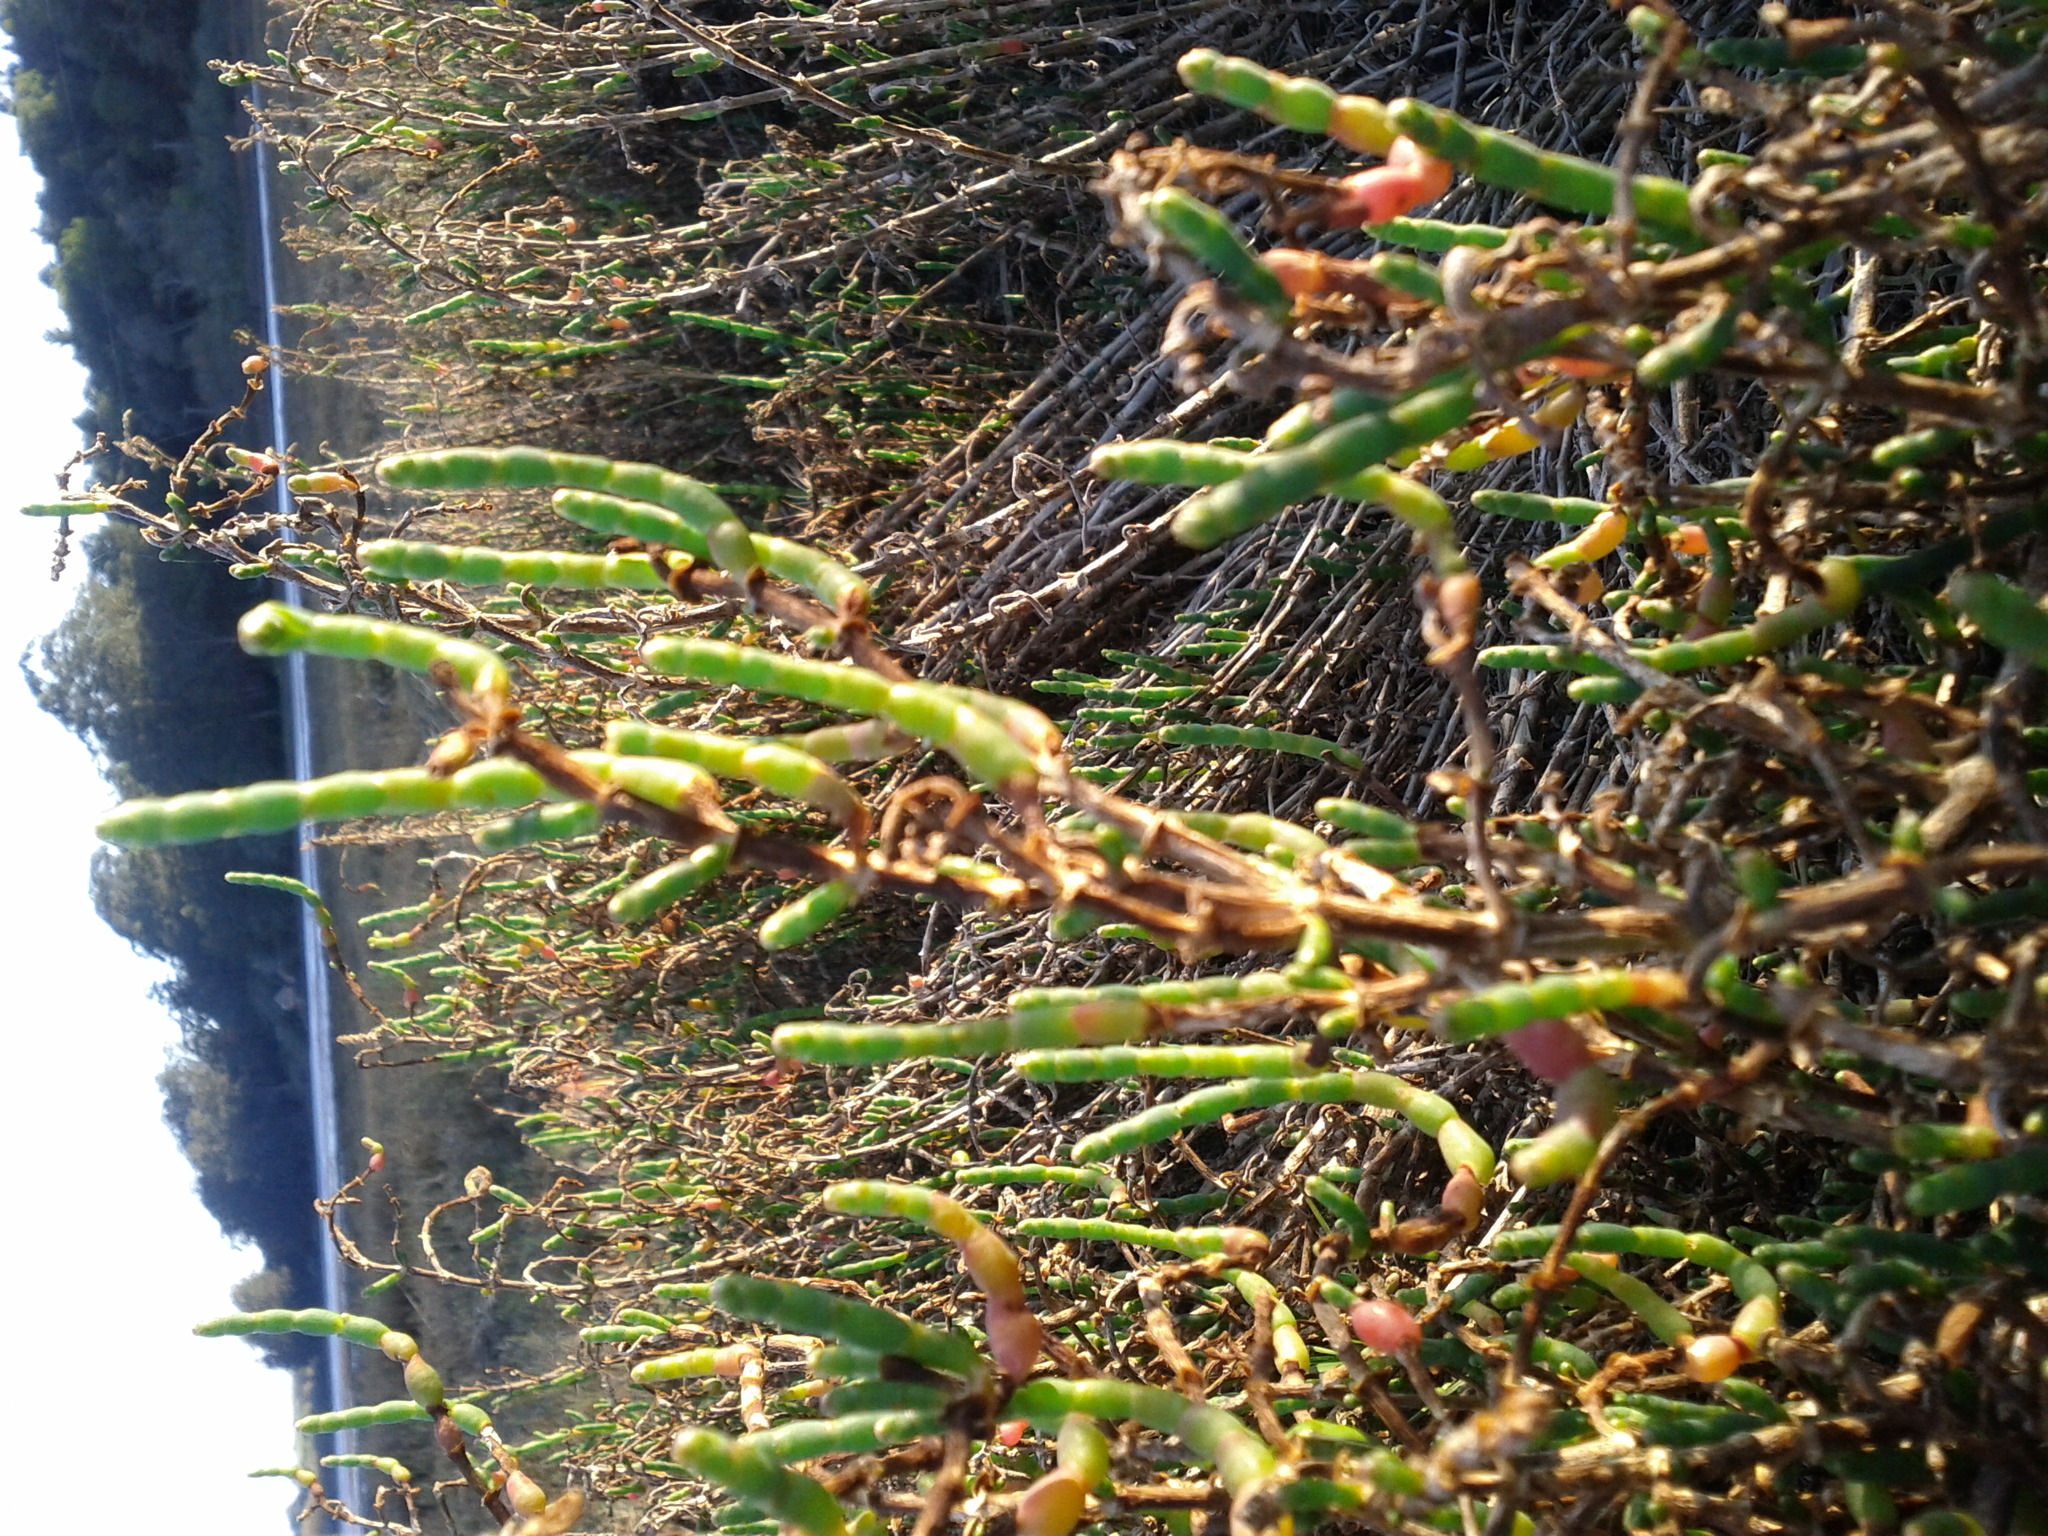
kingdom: Plantae
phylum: Tracheophyta
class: Magnoliopsida
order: Caryophyllales
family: Amaranthaceae
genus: Salicornia
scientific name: Salicornia virginica
